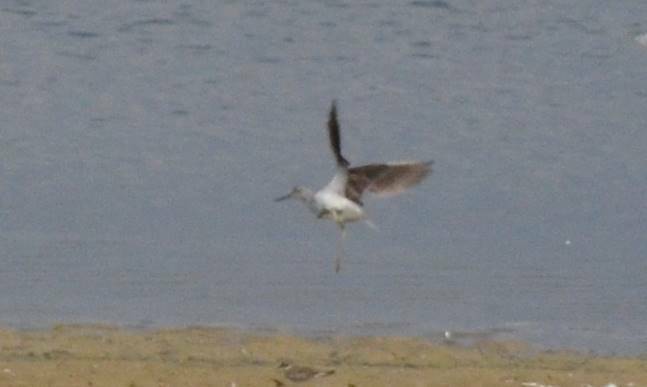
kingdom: Animalia
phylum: Chordata
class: Aves
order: Charadriiformes
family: Scolopacidae
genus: Tringa
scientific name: Tringa nebularia
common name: Common greenshank
